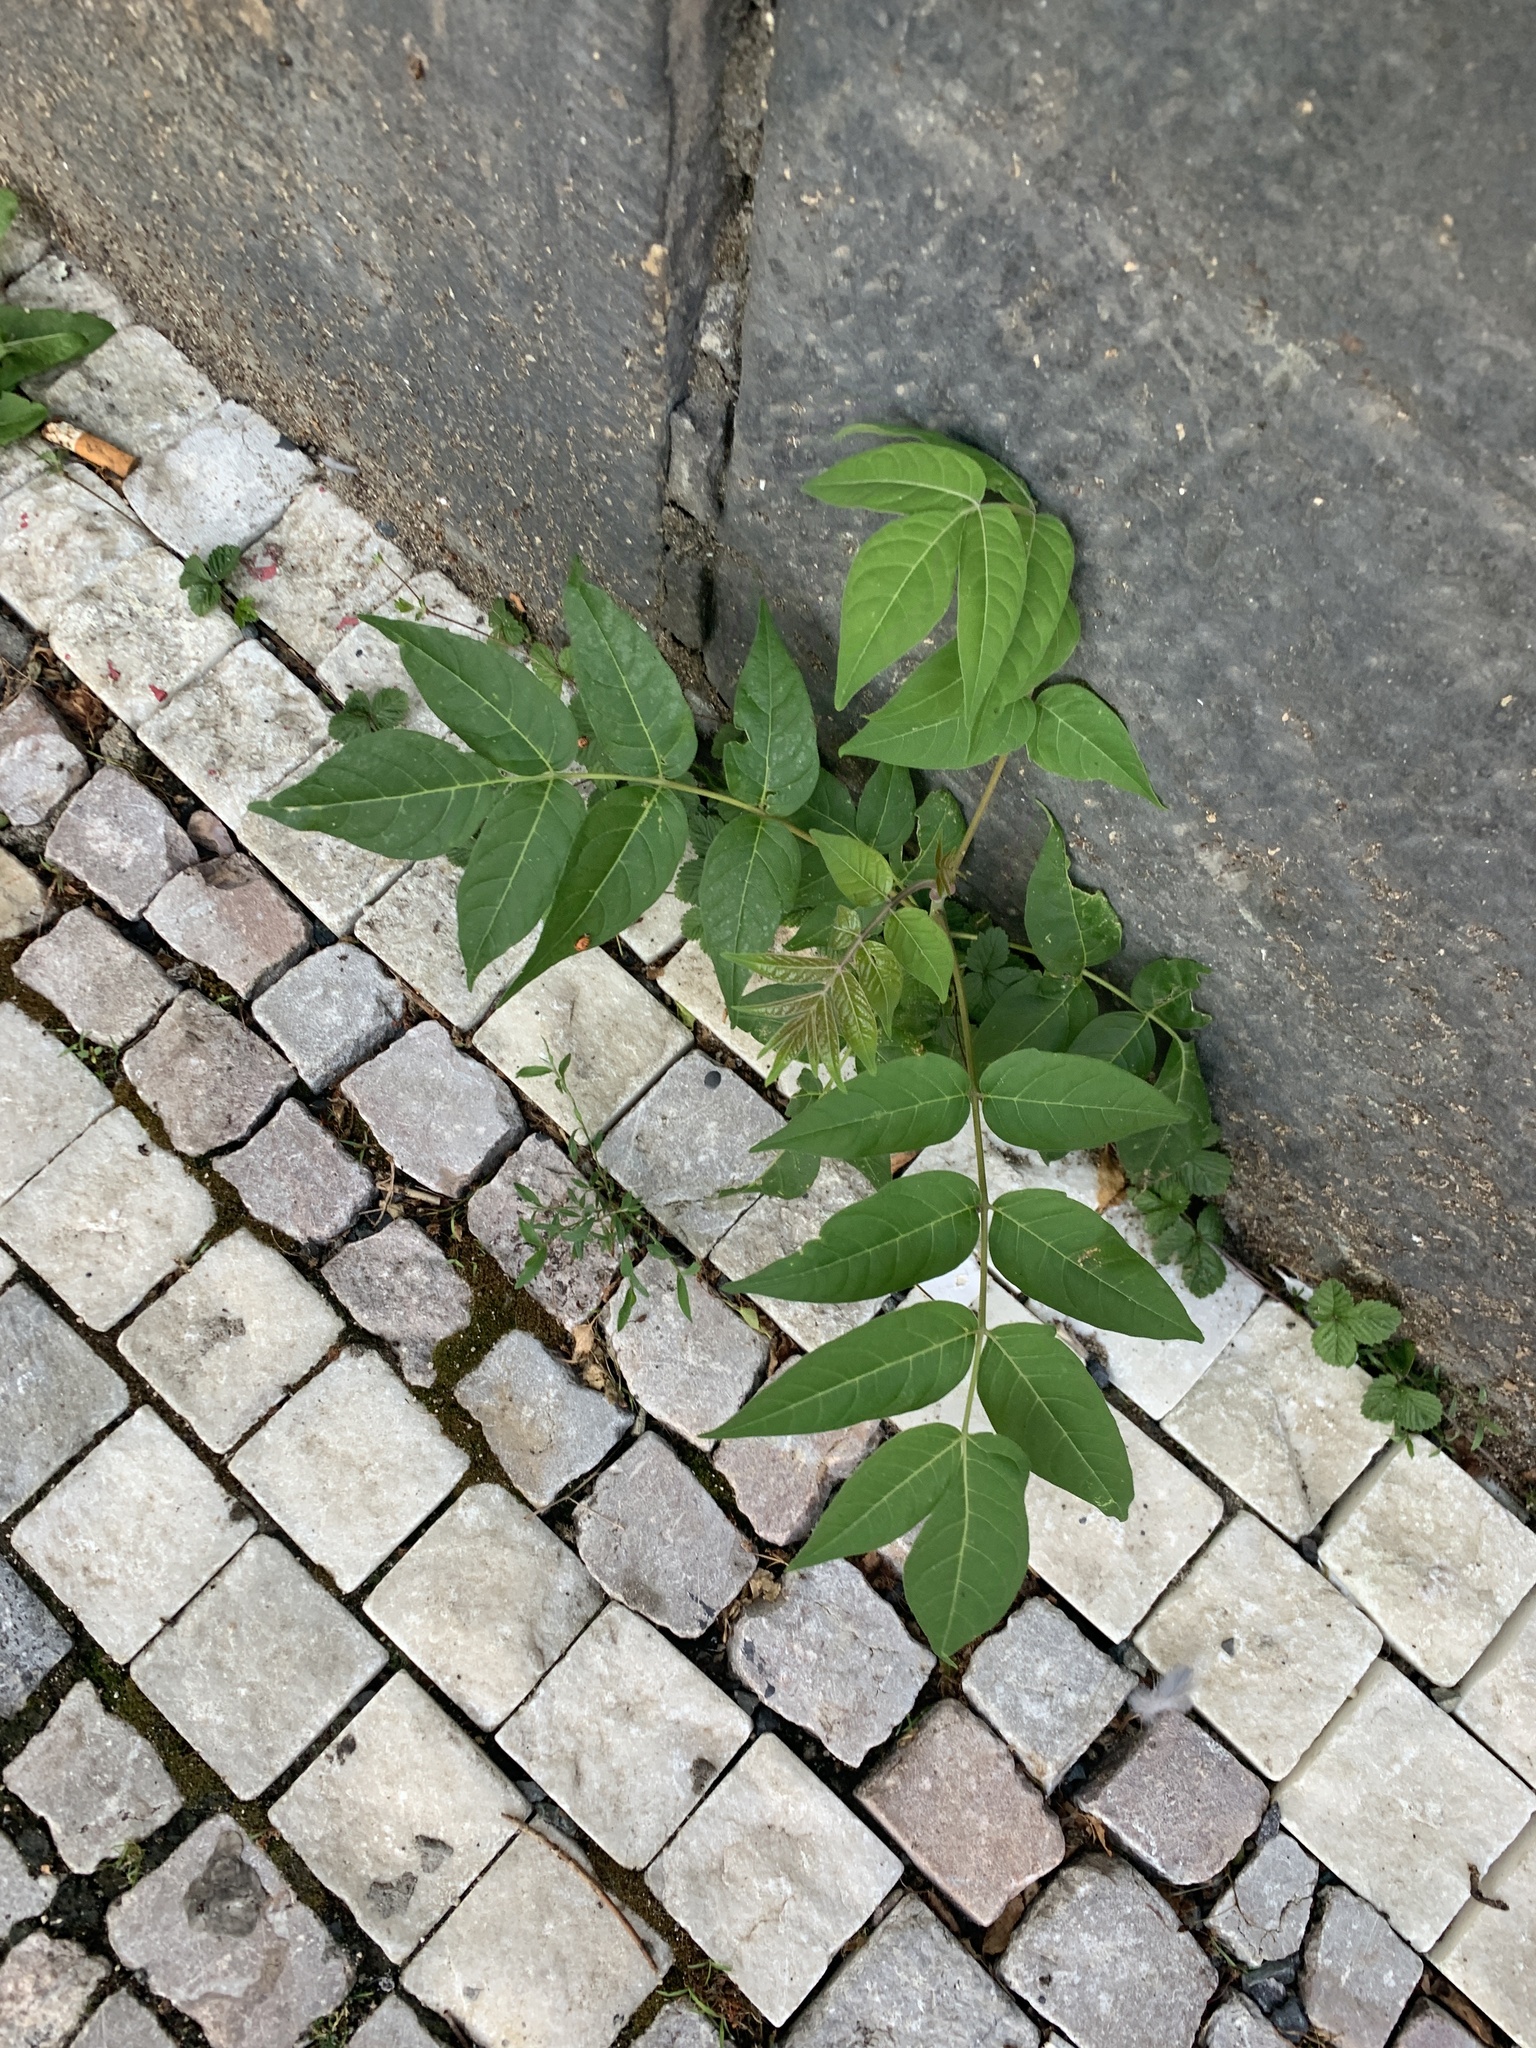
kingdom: Plantae
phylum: Tracheophyta
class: Magnoliopsida
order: Sapindales
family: Simaroubaceae
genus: Ailanthus
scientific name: Ailanthus altissima
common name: Tree-of-heaven
